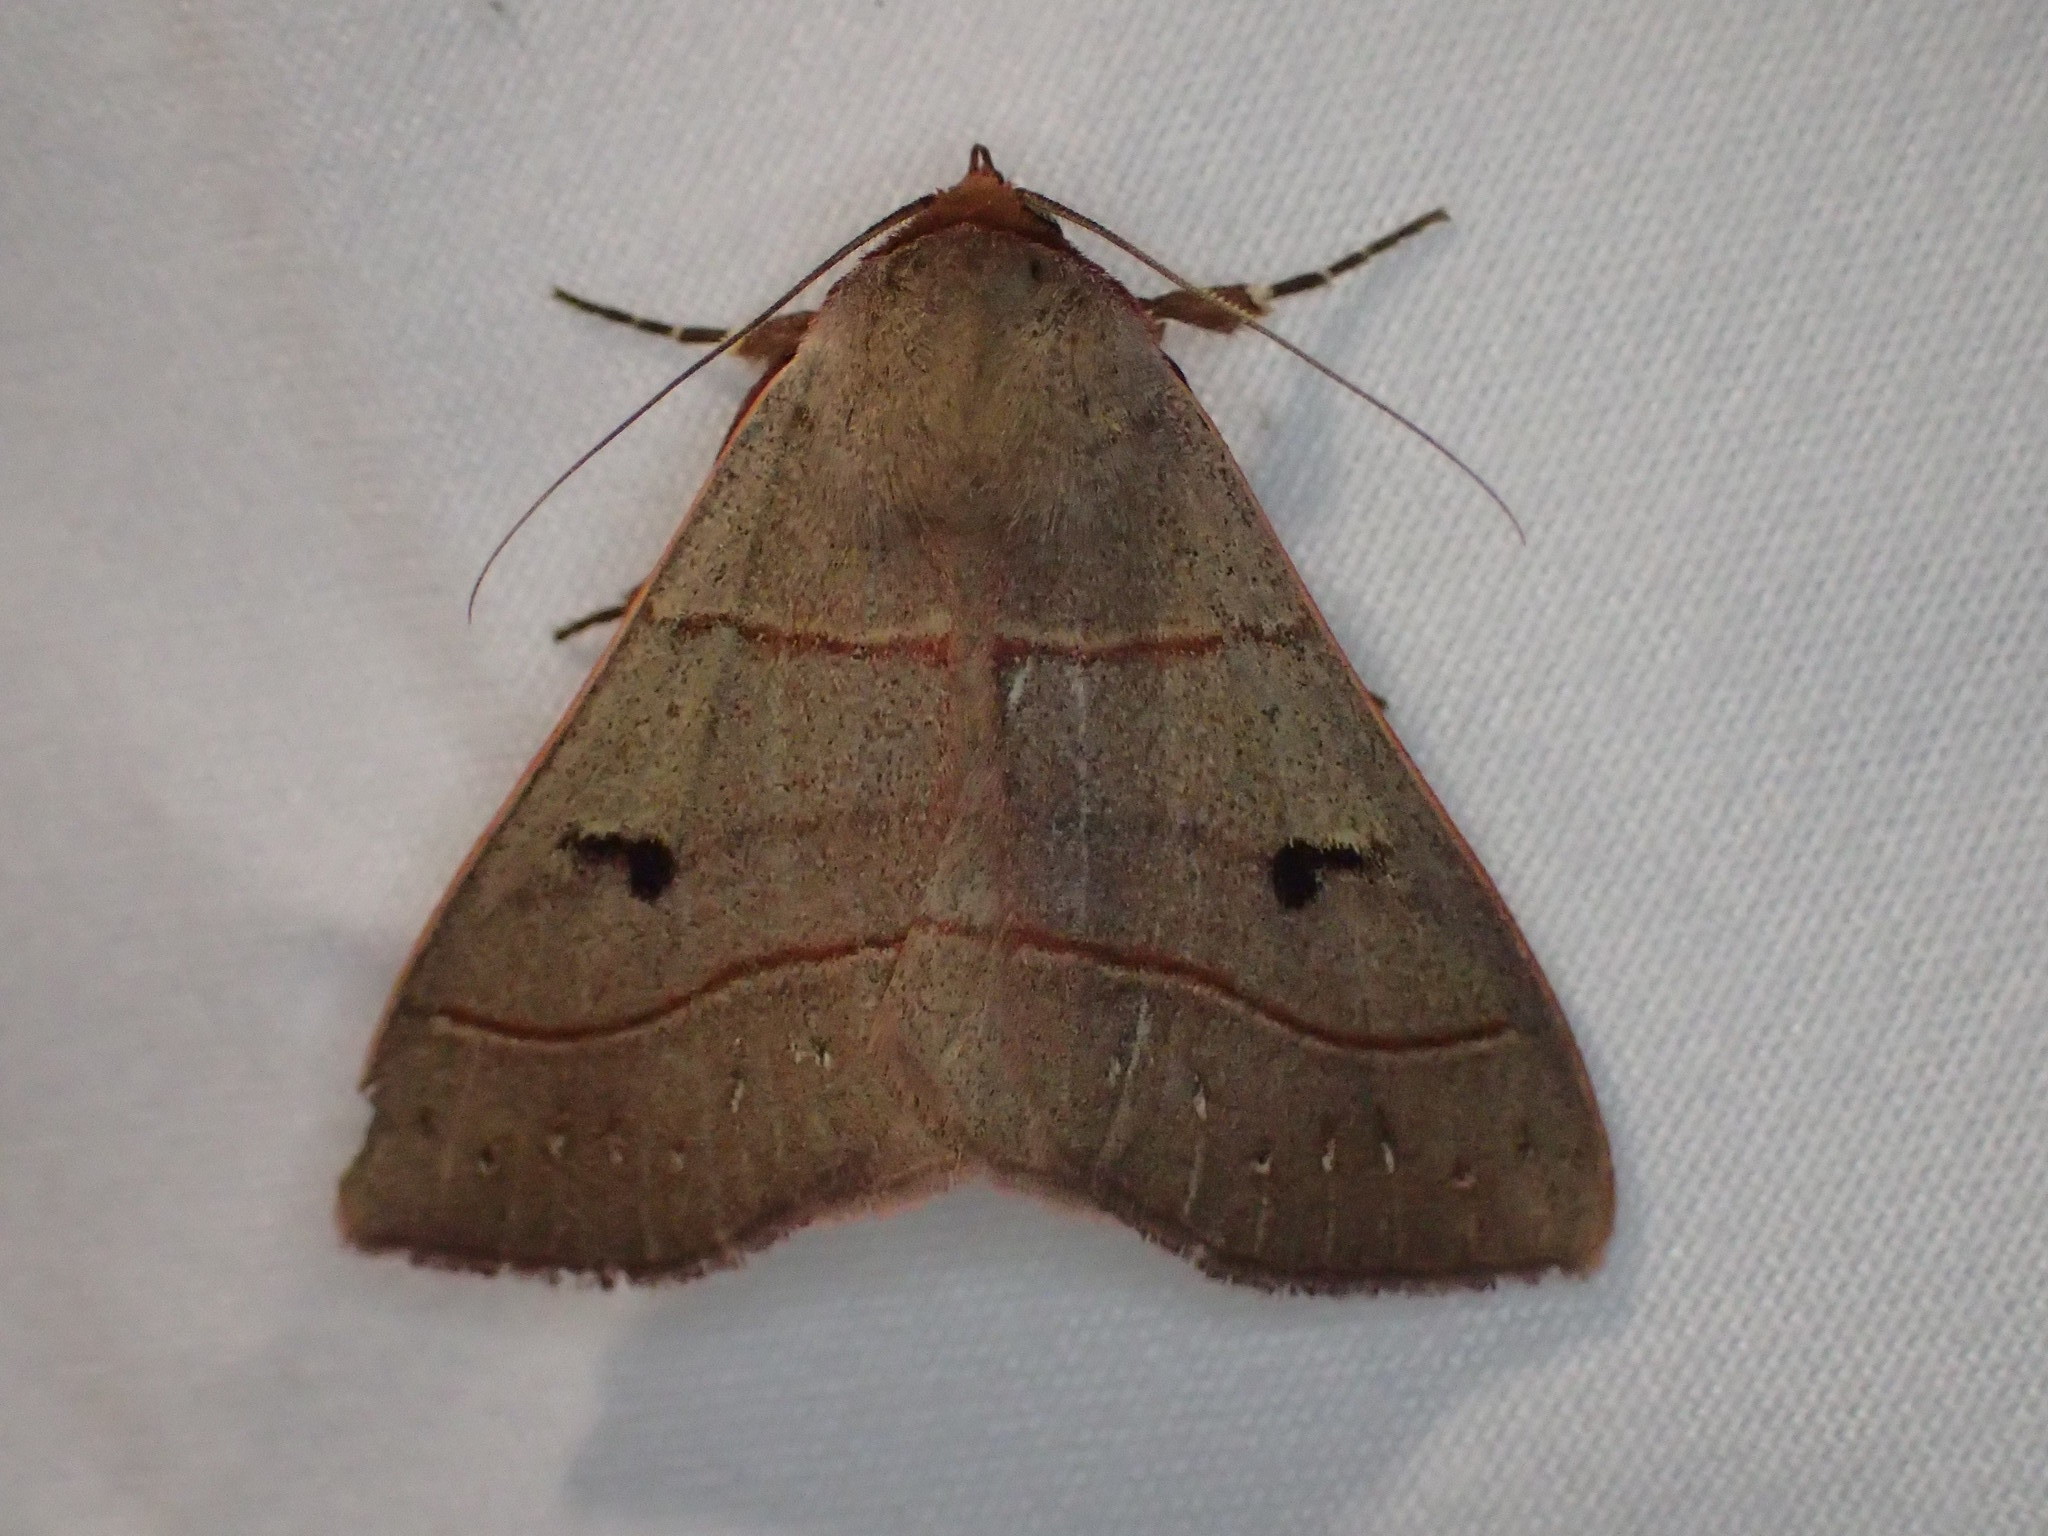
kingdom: Animalia
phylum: Arthropoda
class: Insecta
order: Lepidoptera
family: Erebidae
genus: Panopoda
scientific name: Panopoda rufimargo
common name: Red-lined panopoda moth
